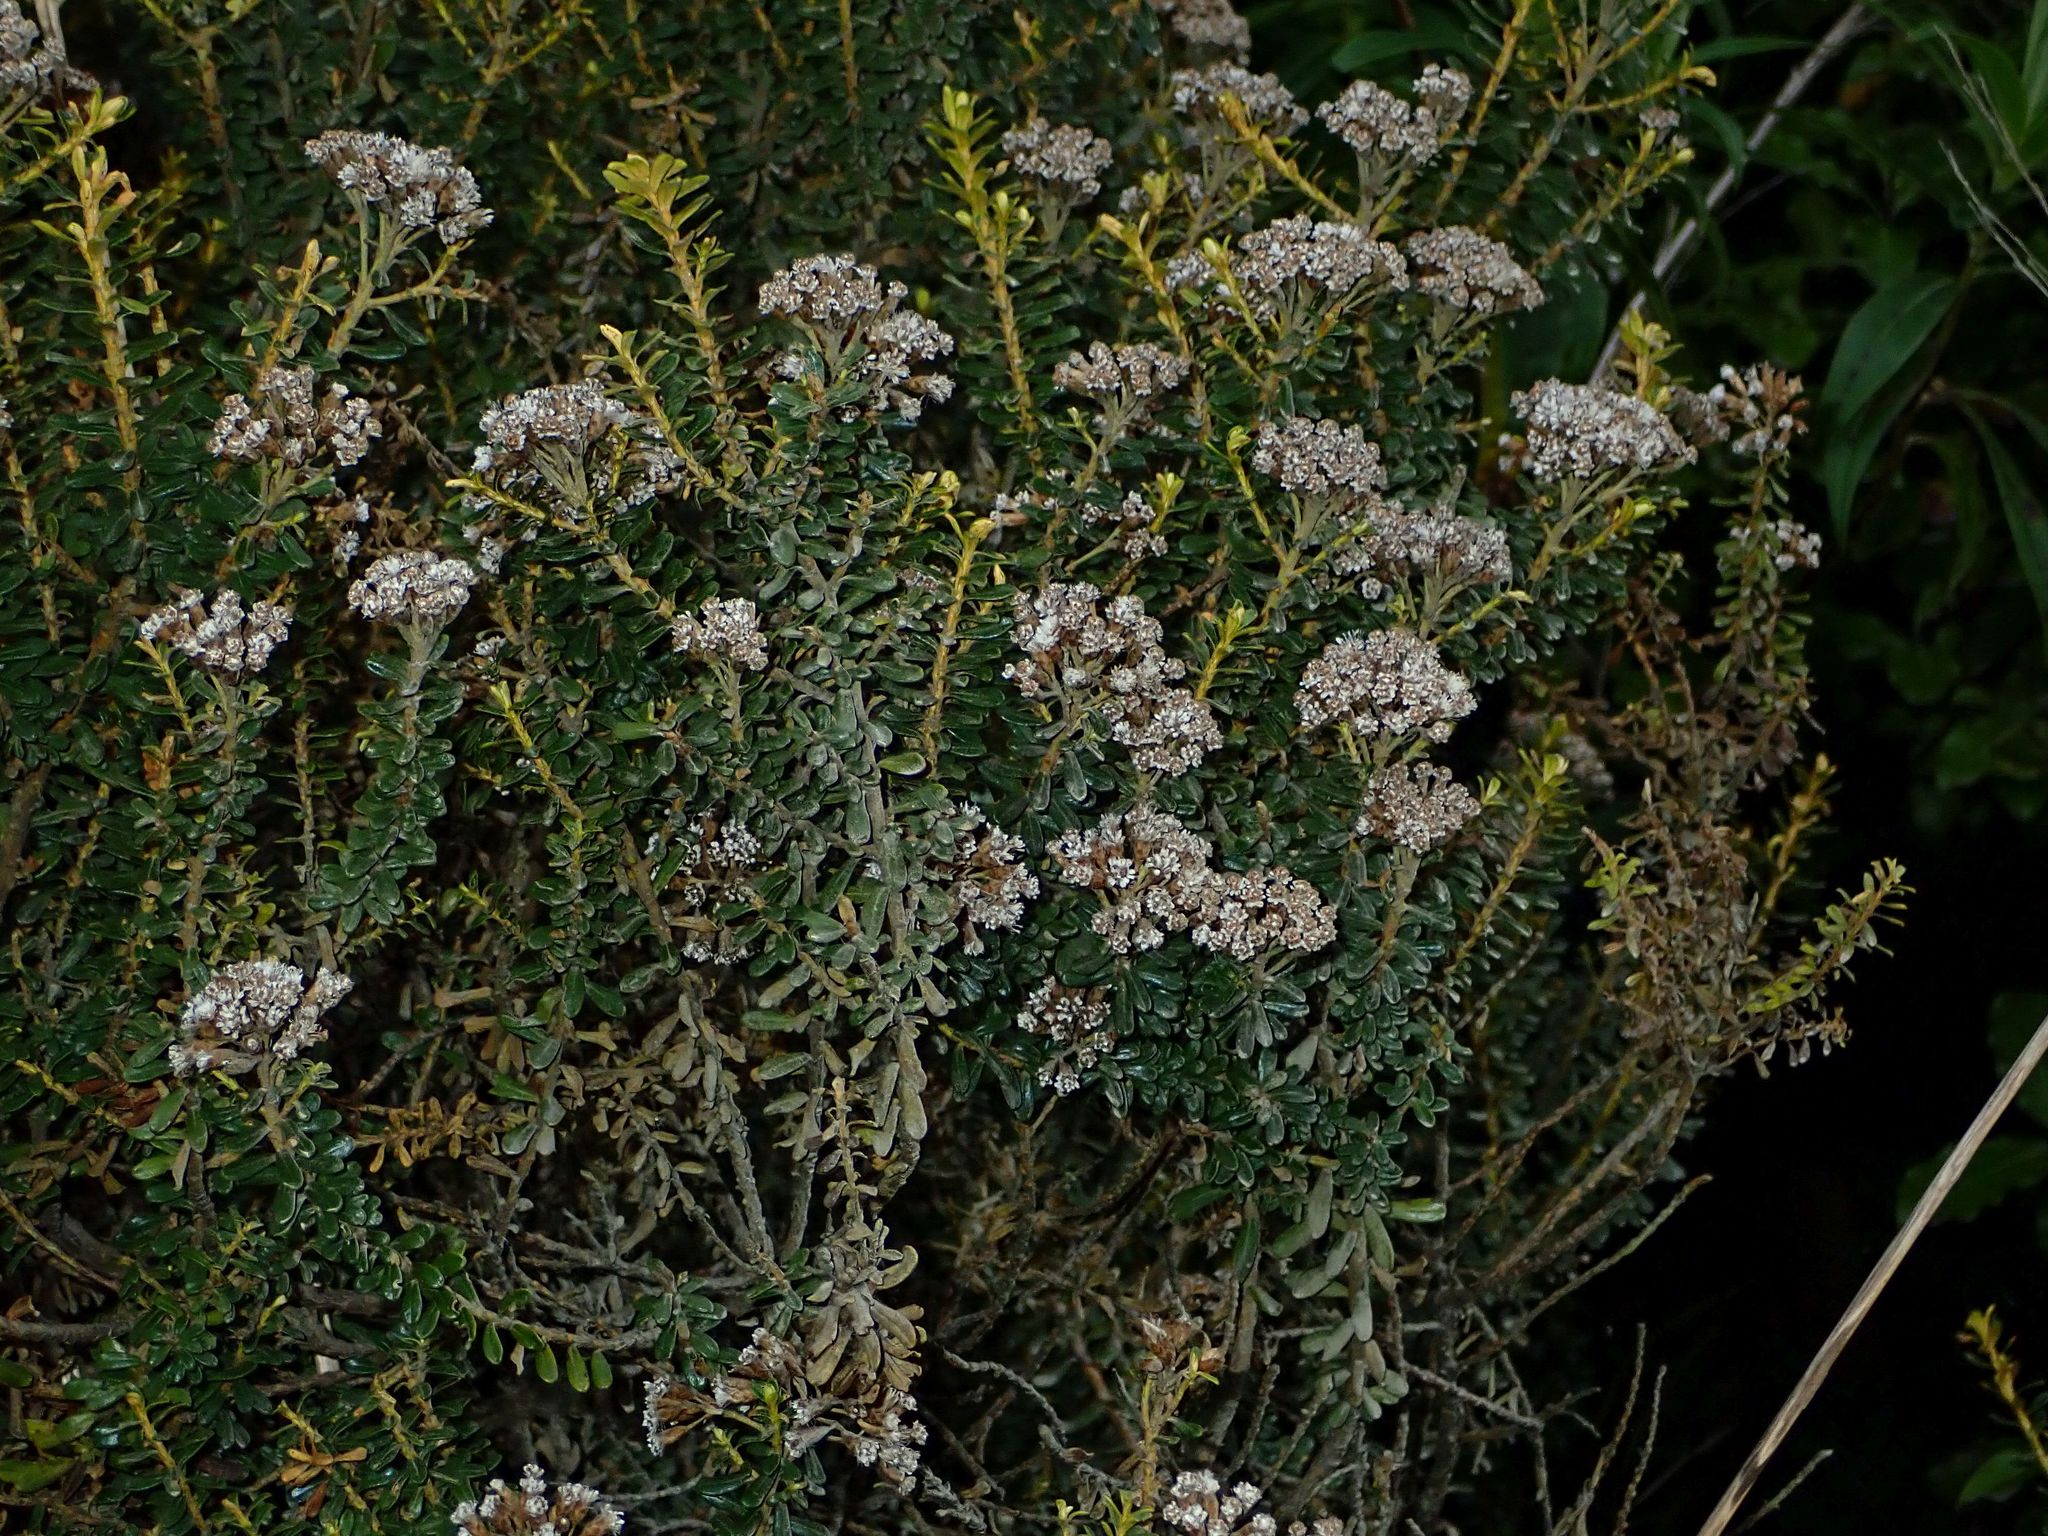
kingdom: Plantae
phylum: Tracheophyta
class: Magnoliopsida
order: Asterales
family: Asteraceae
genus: Ozothamnus
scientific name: Ozothamnus leptophyllus
